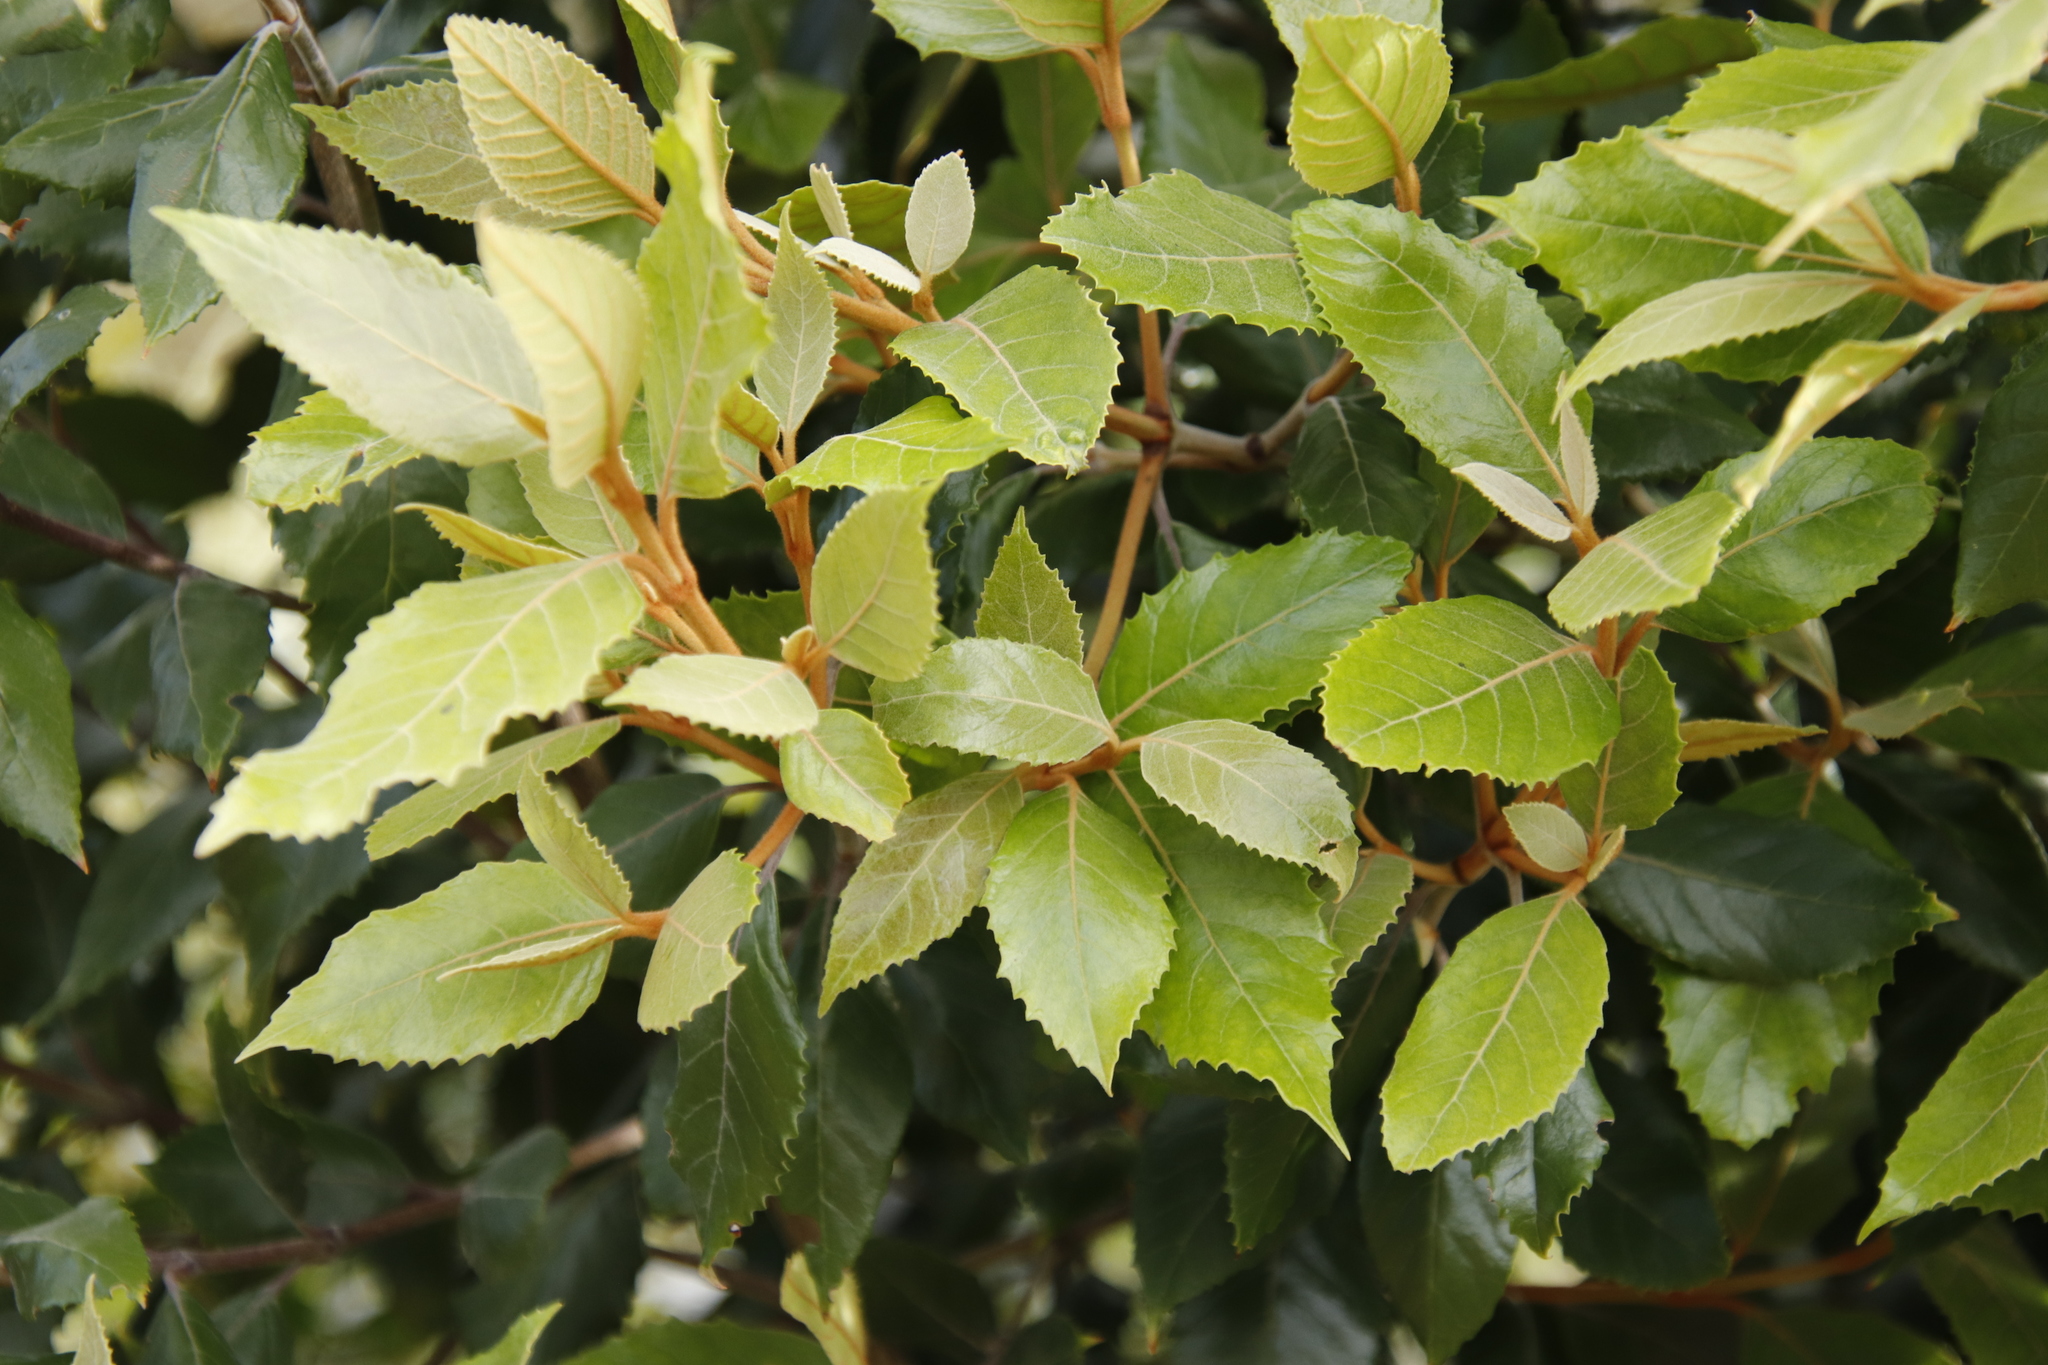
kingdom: Plantae
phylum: Tracheophyta
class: Magnoliopsida
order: Cornales
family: Curtisiaceae
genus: Curtisia
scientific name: Curtisia dentata
